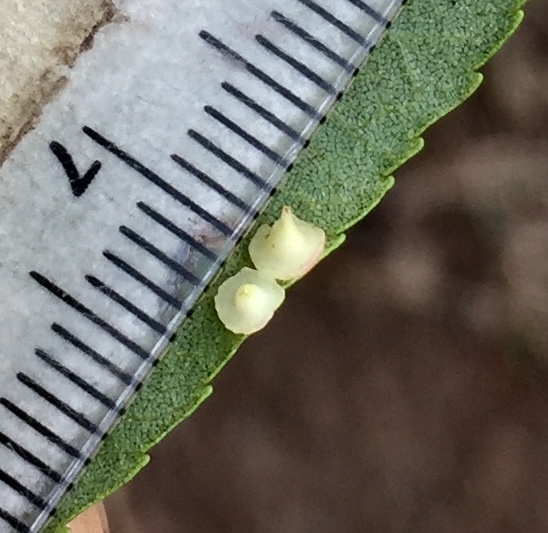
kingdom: Animalia
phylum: Arthropoda
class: Insecta
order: Diptera
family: Cecidomyiidae
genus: Caryomyia
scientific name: Caryomyia arcuata
